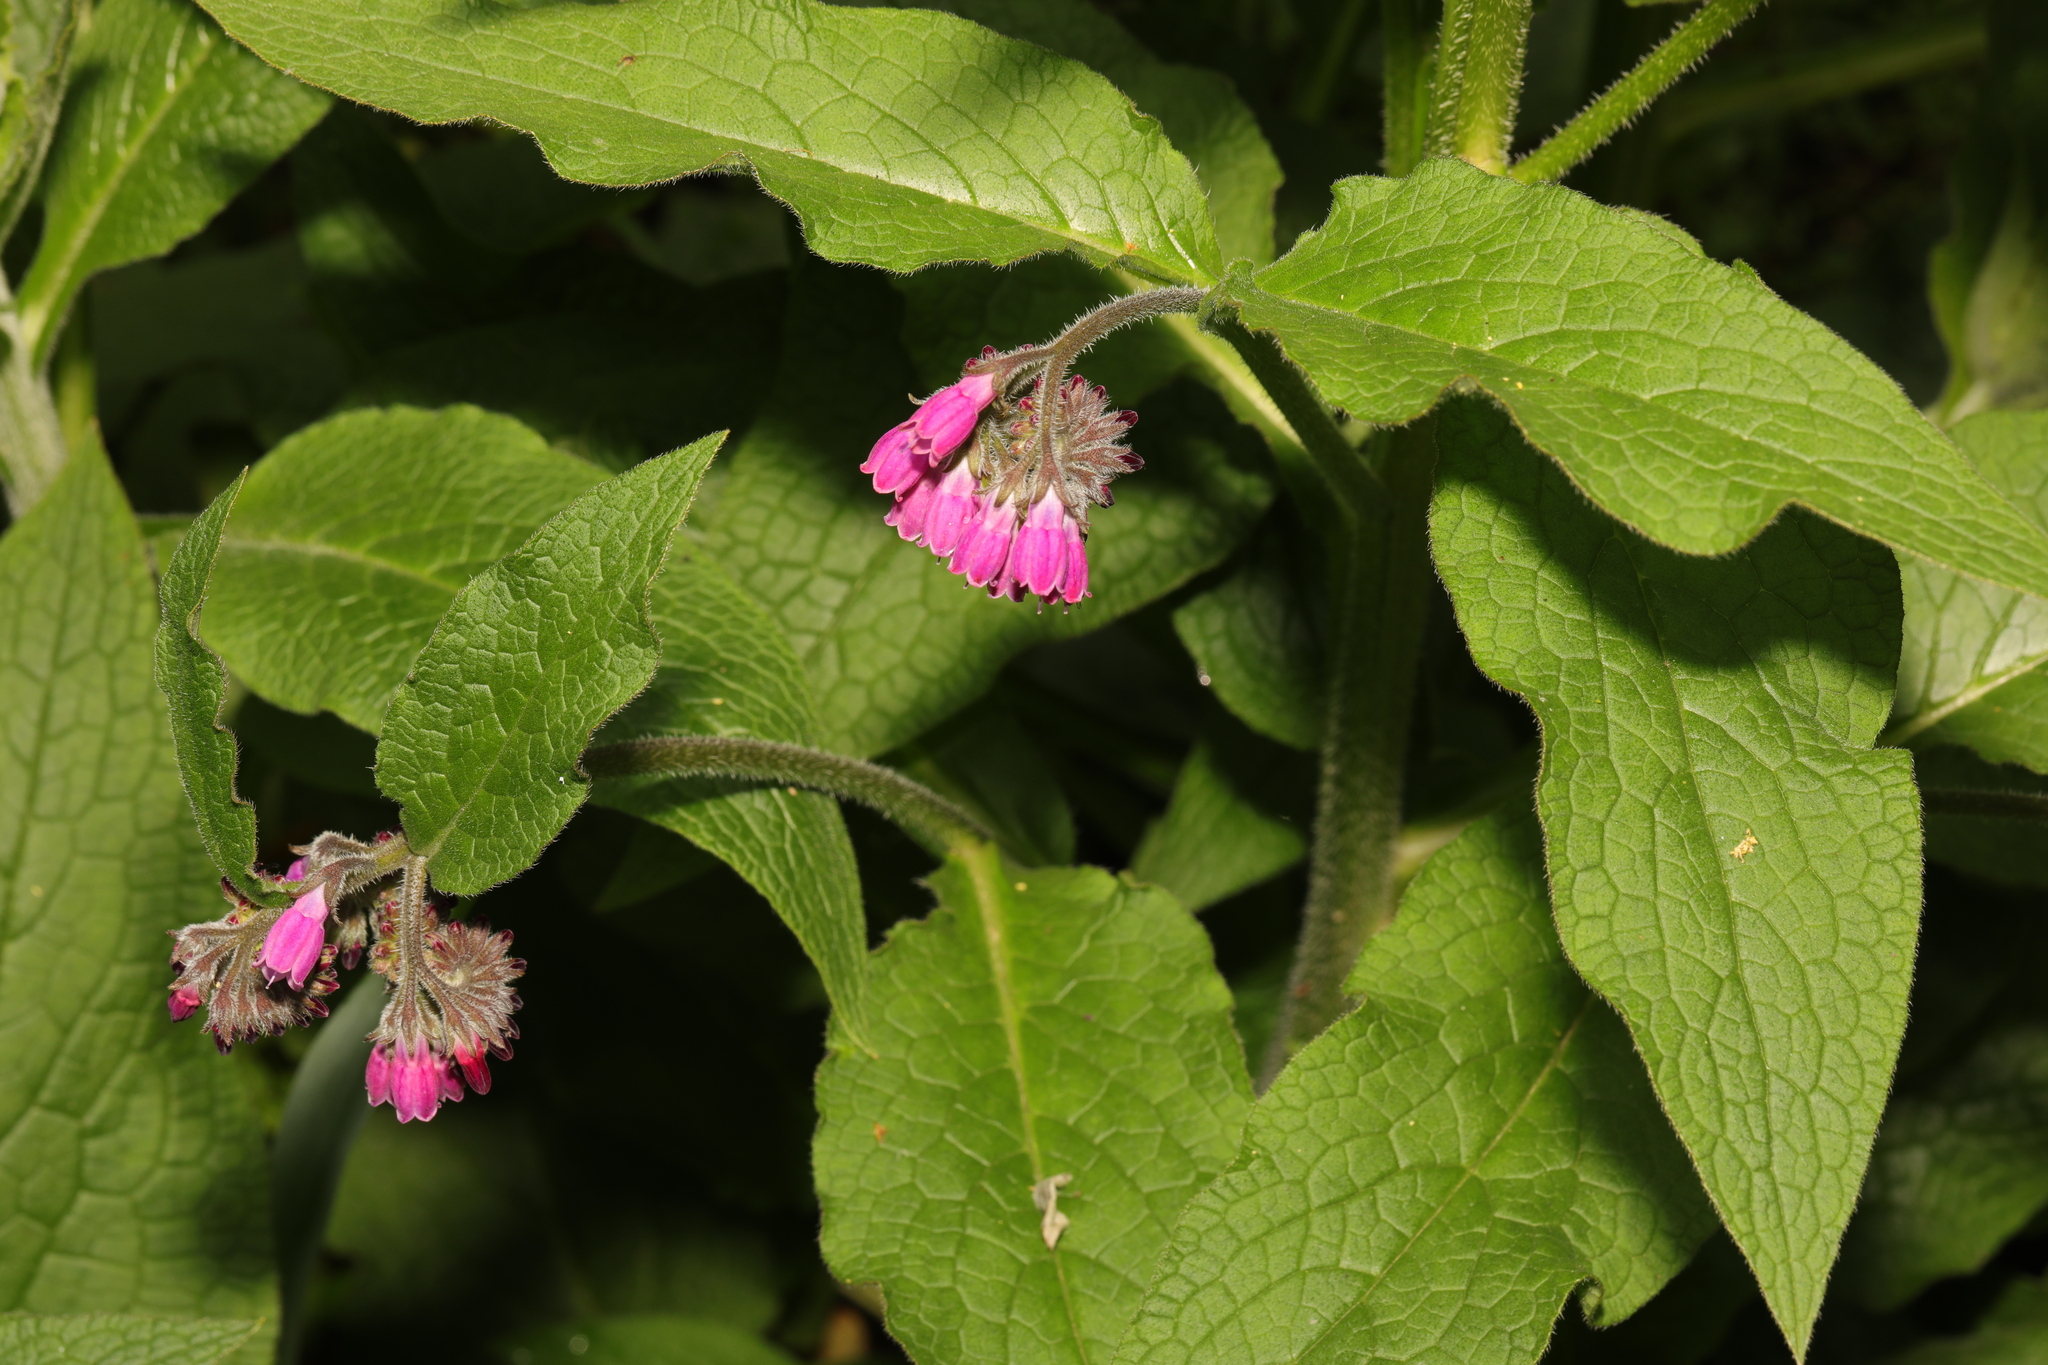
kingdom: Plantae
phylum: Tracheophyta
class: Magnoliopsida
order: Boraginales
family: Boraginaceae
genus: Symphytum
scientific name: Symphytum officinale
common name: Common comfrey
